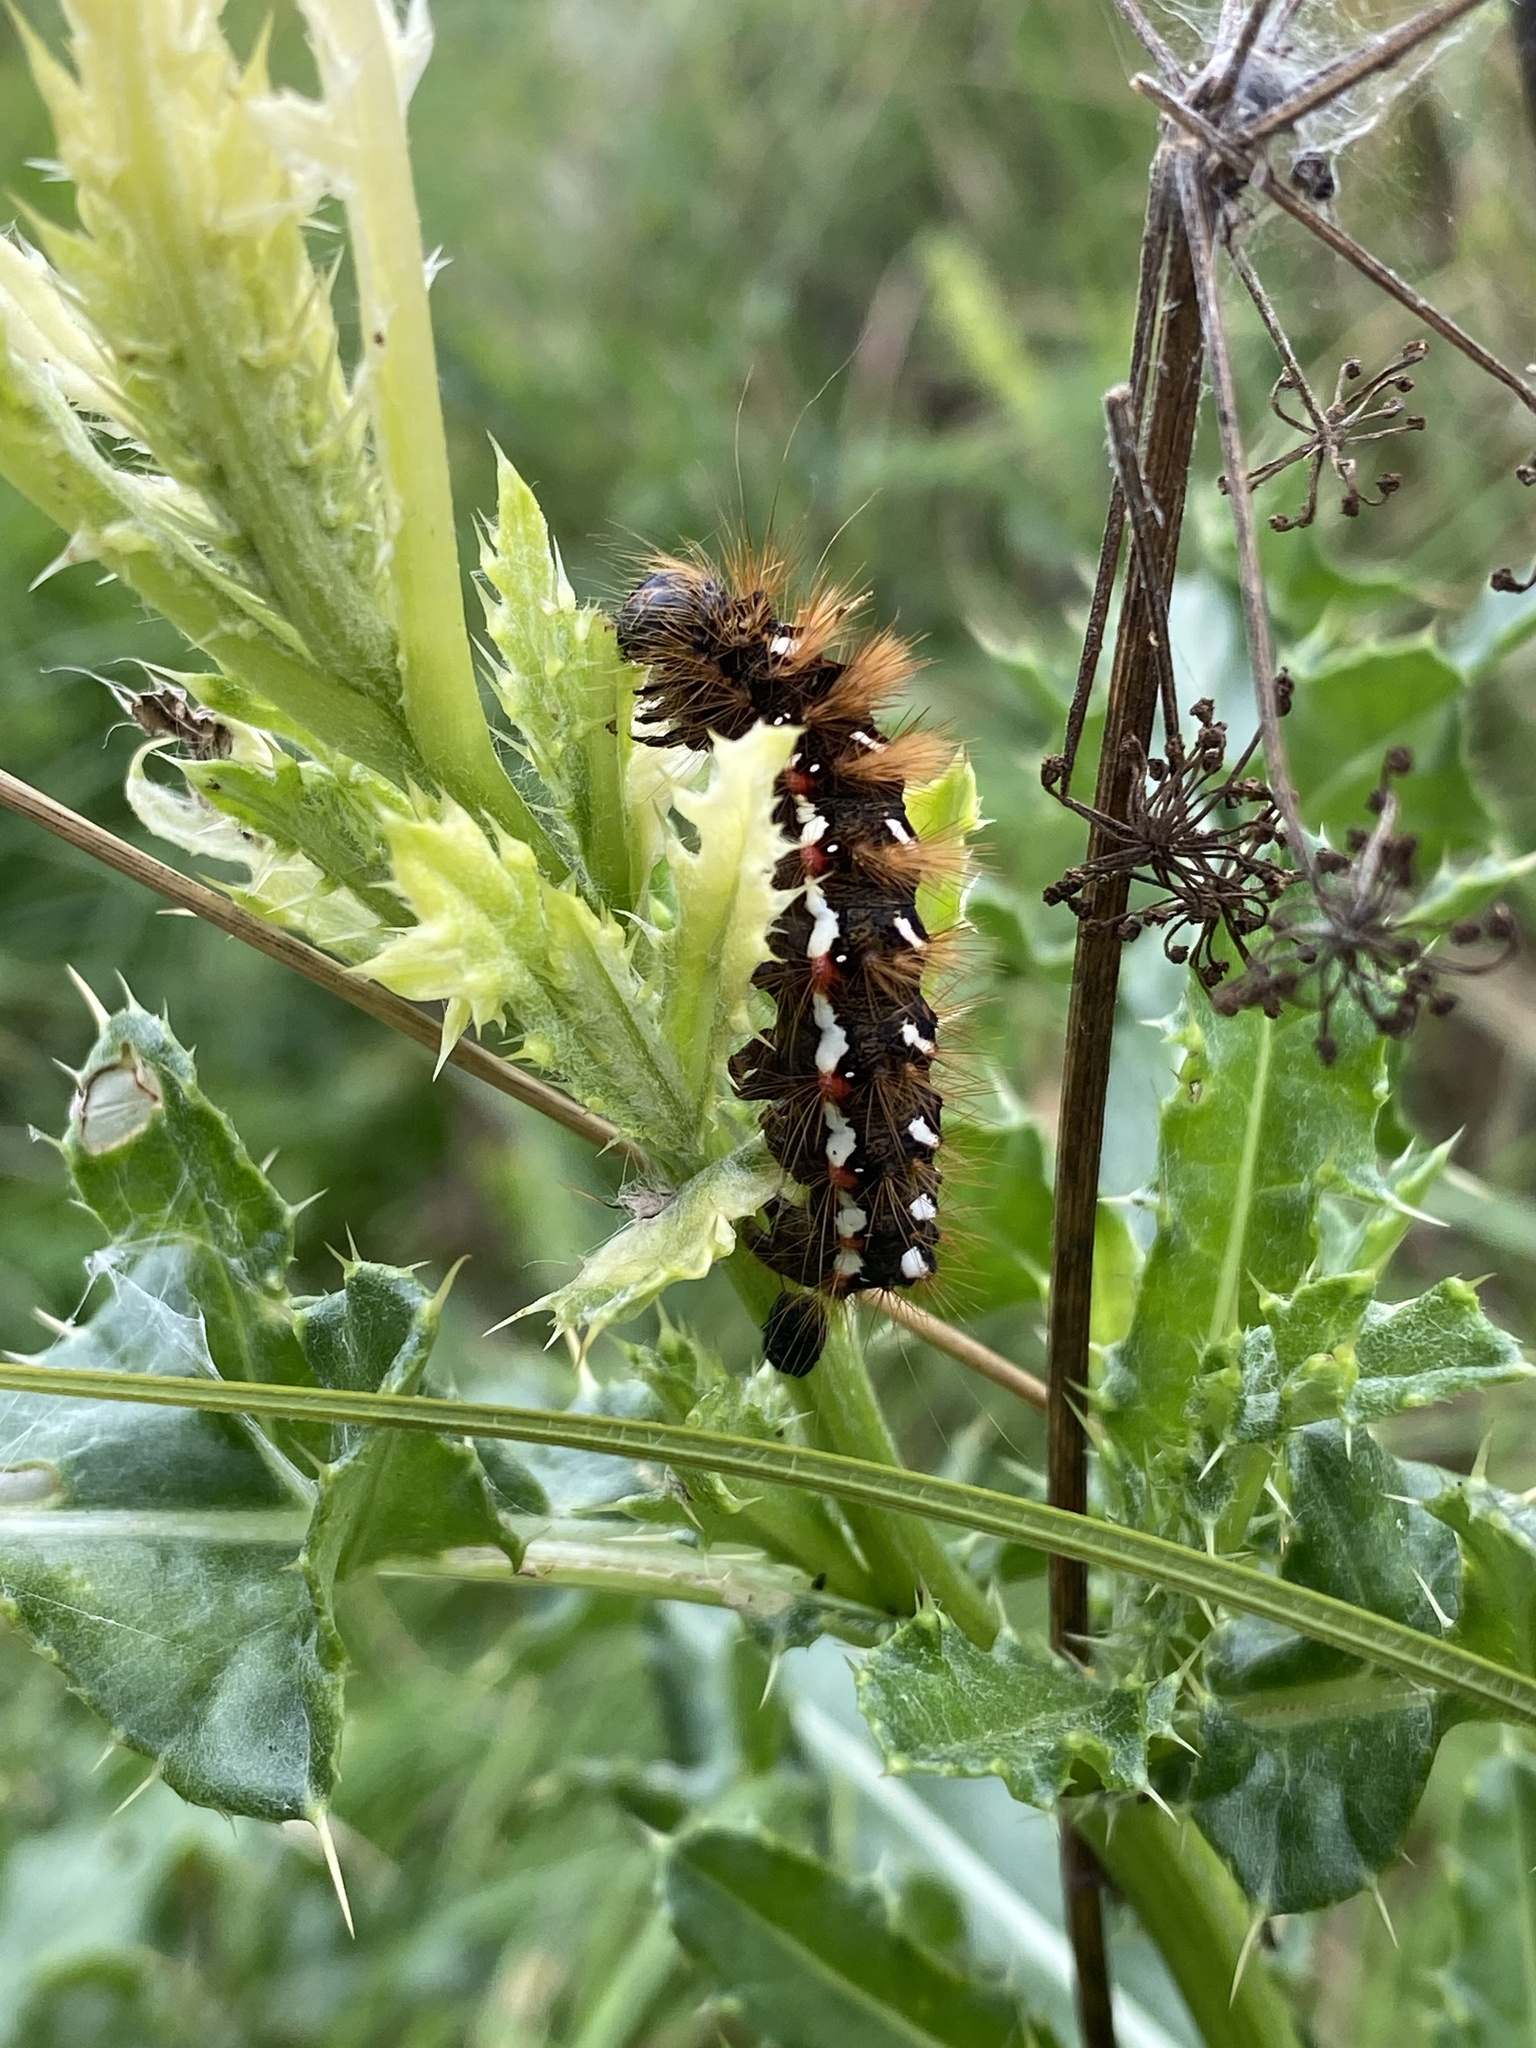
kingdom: Animalia
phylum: Arthropoda
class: Insecta
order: Lepidoptera
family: Noctuidae
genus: Acronicta
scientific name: Acronicta rumicis
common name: Knot grass
